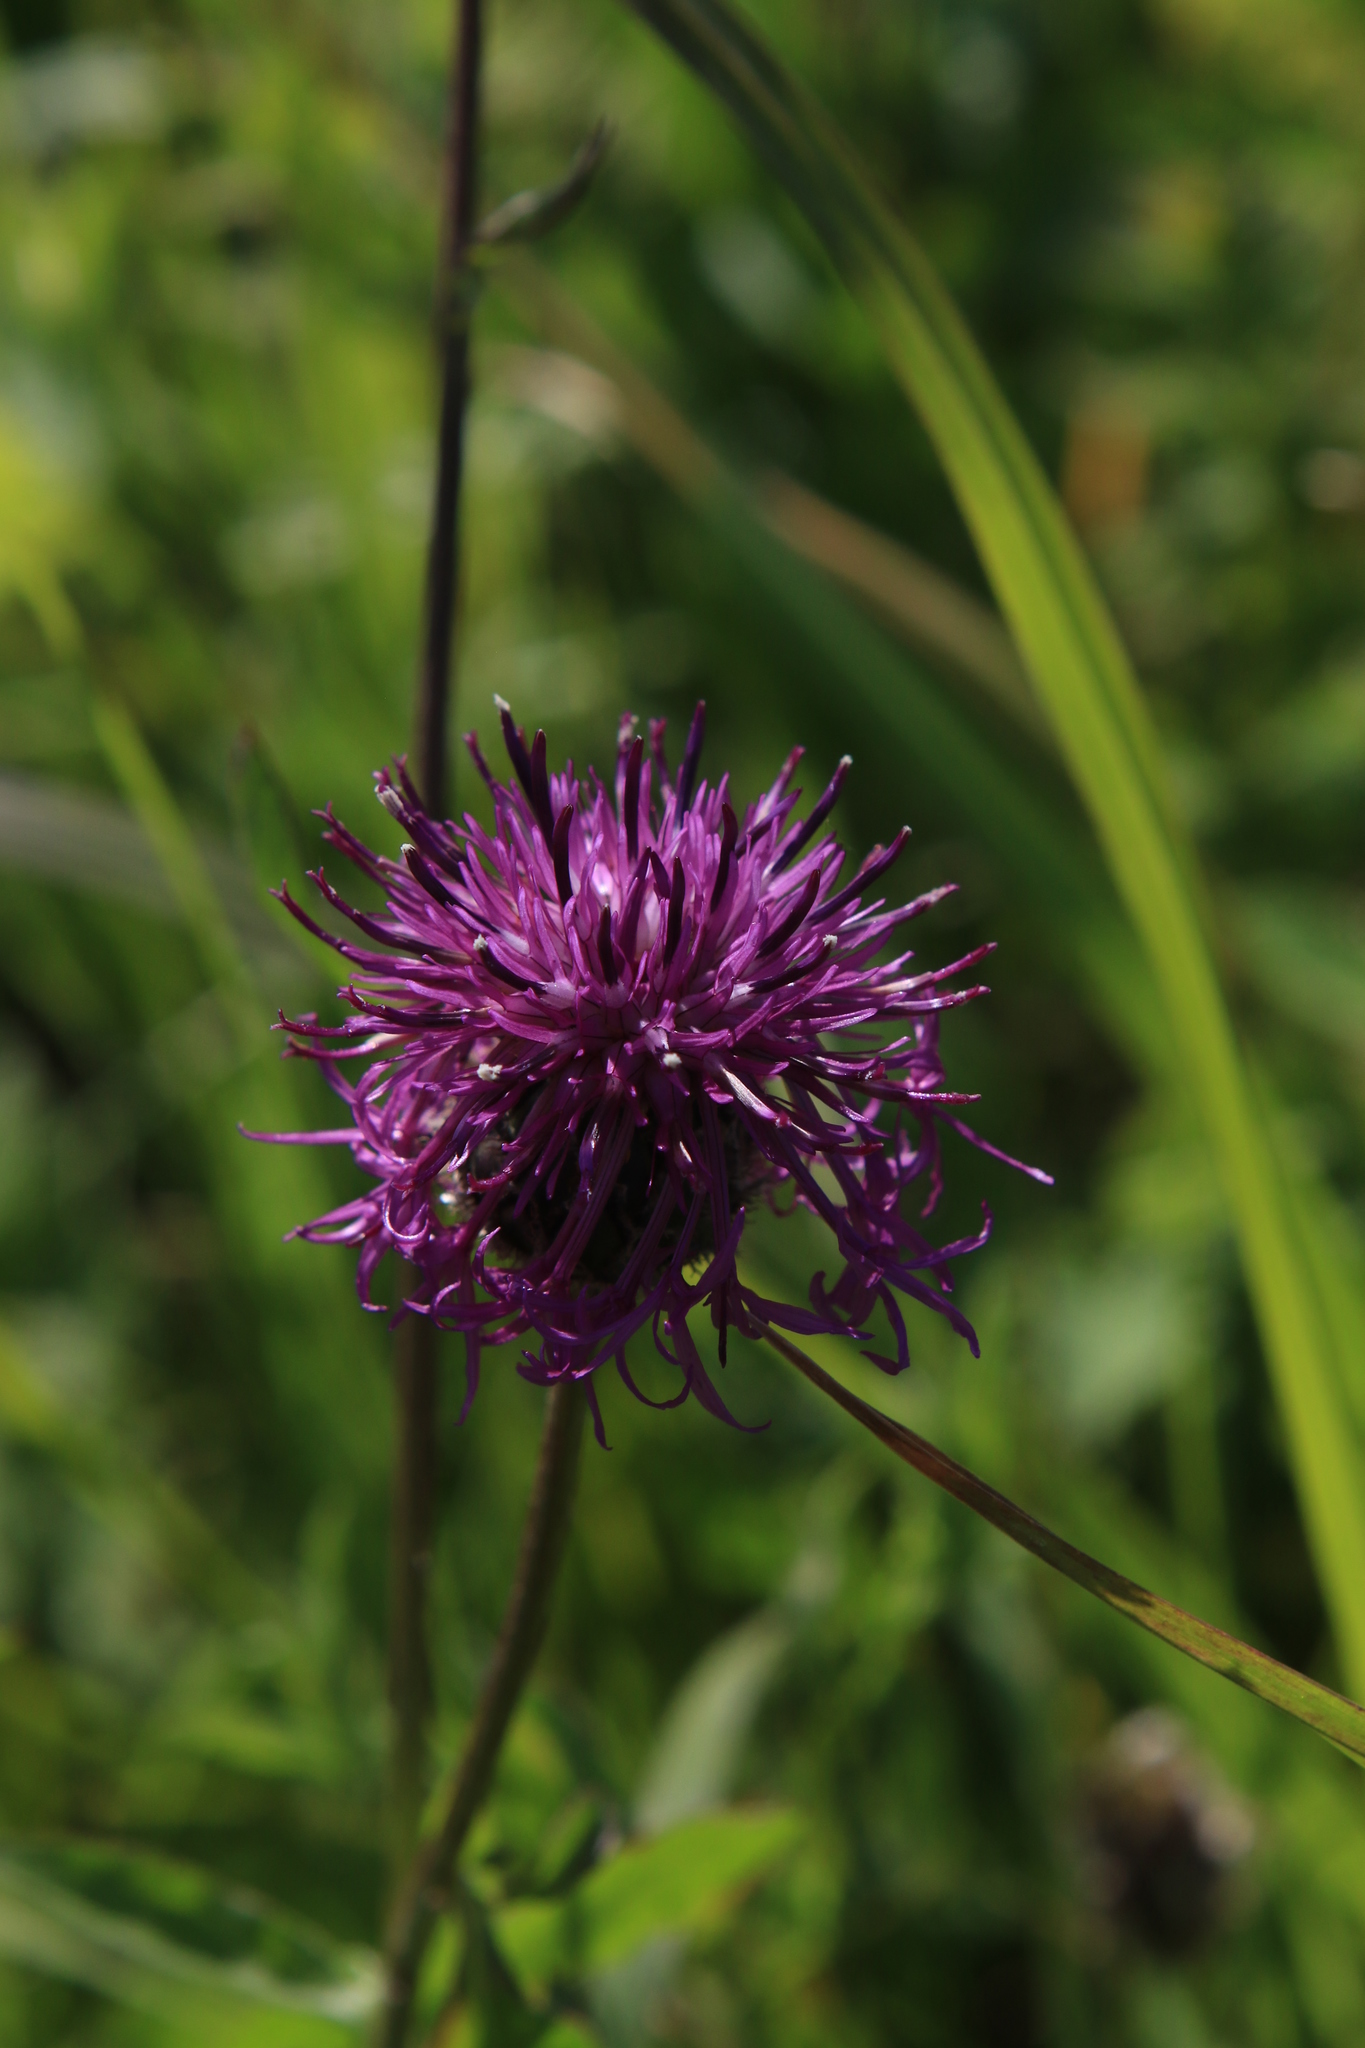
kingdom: Plantae
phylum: Tracheophyta
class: Magnoliopsida
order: Asterales
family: Asteraceae
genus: Centaurea
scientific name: Centaurea scabiosa
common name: Greater knapweed
